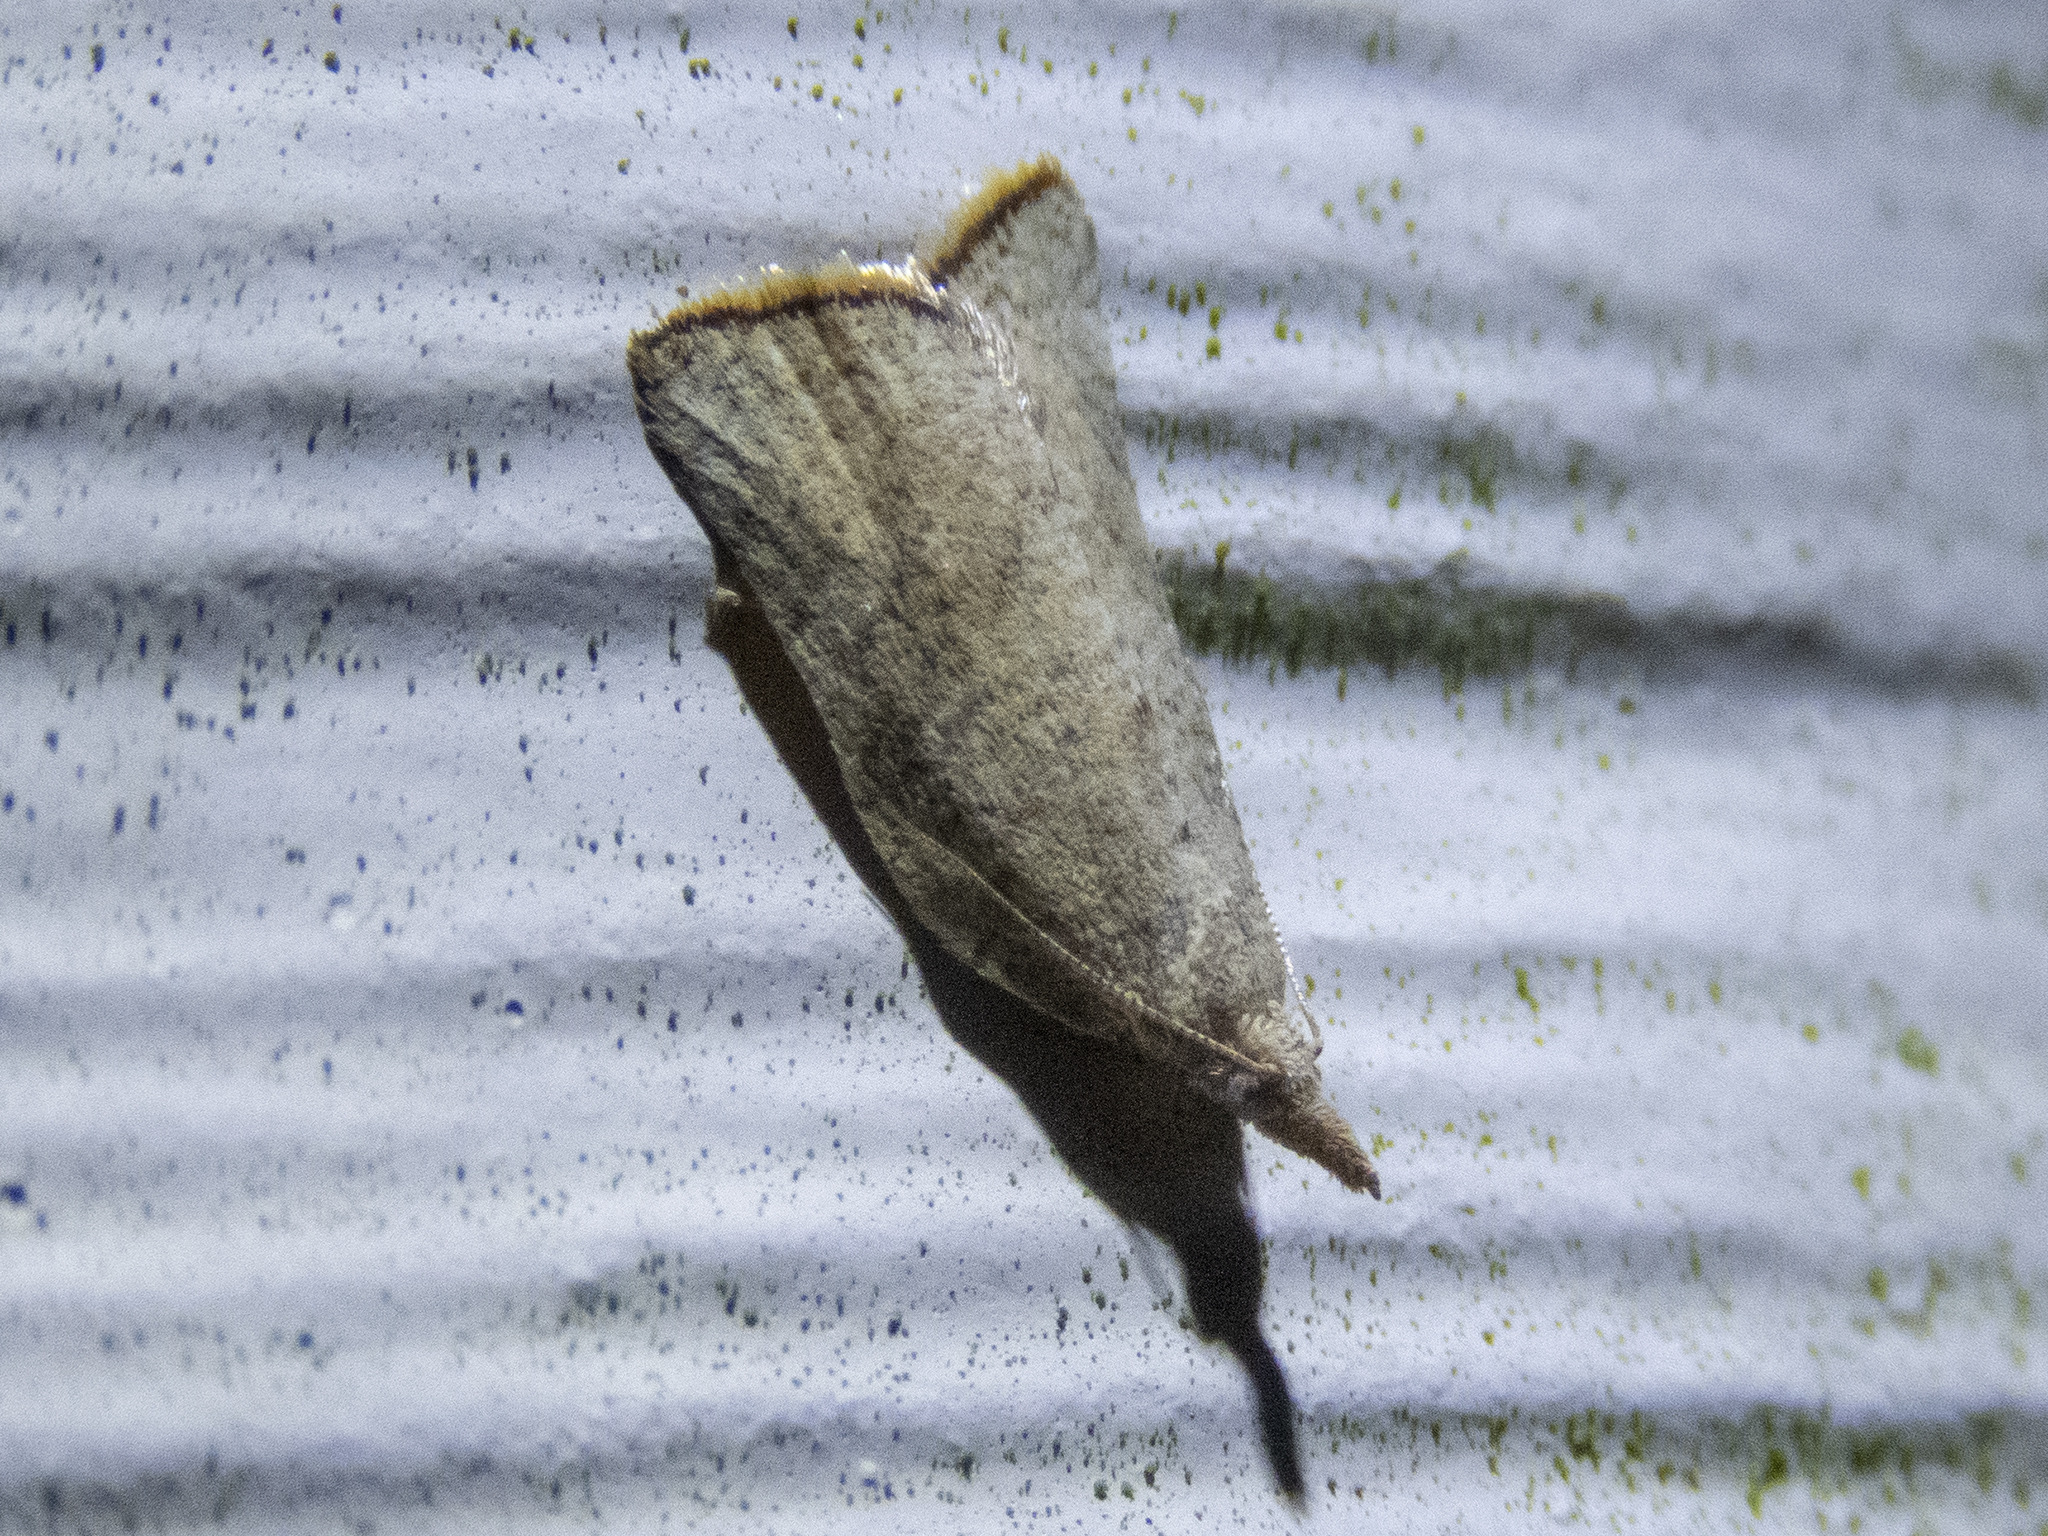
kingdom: Animalia
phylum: Arthropoda
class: Insecta
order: Lepidoptera
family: Tortricidae
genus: Catamacta
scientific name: Catamacta gavisana
